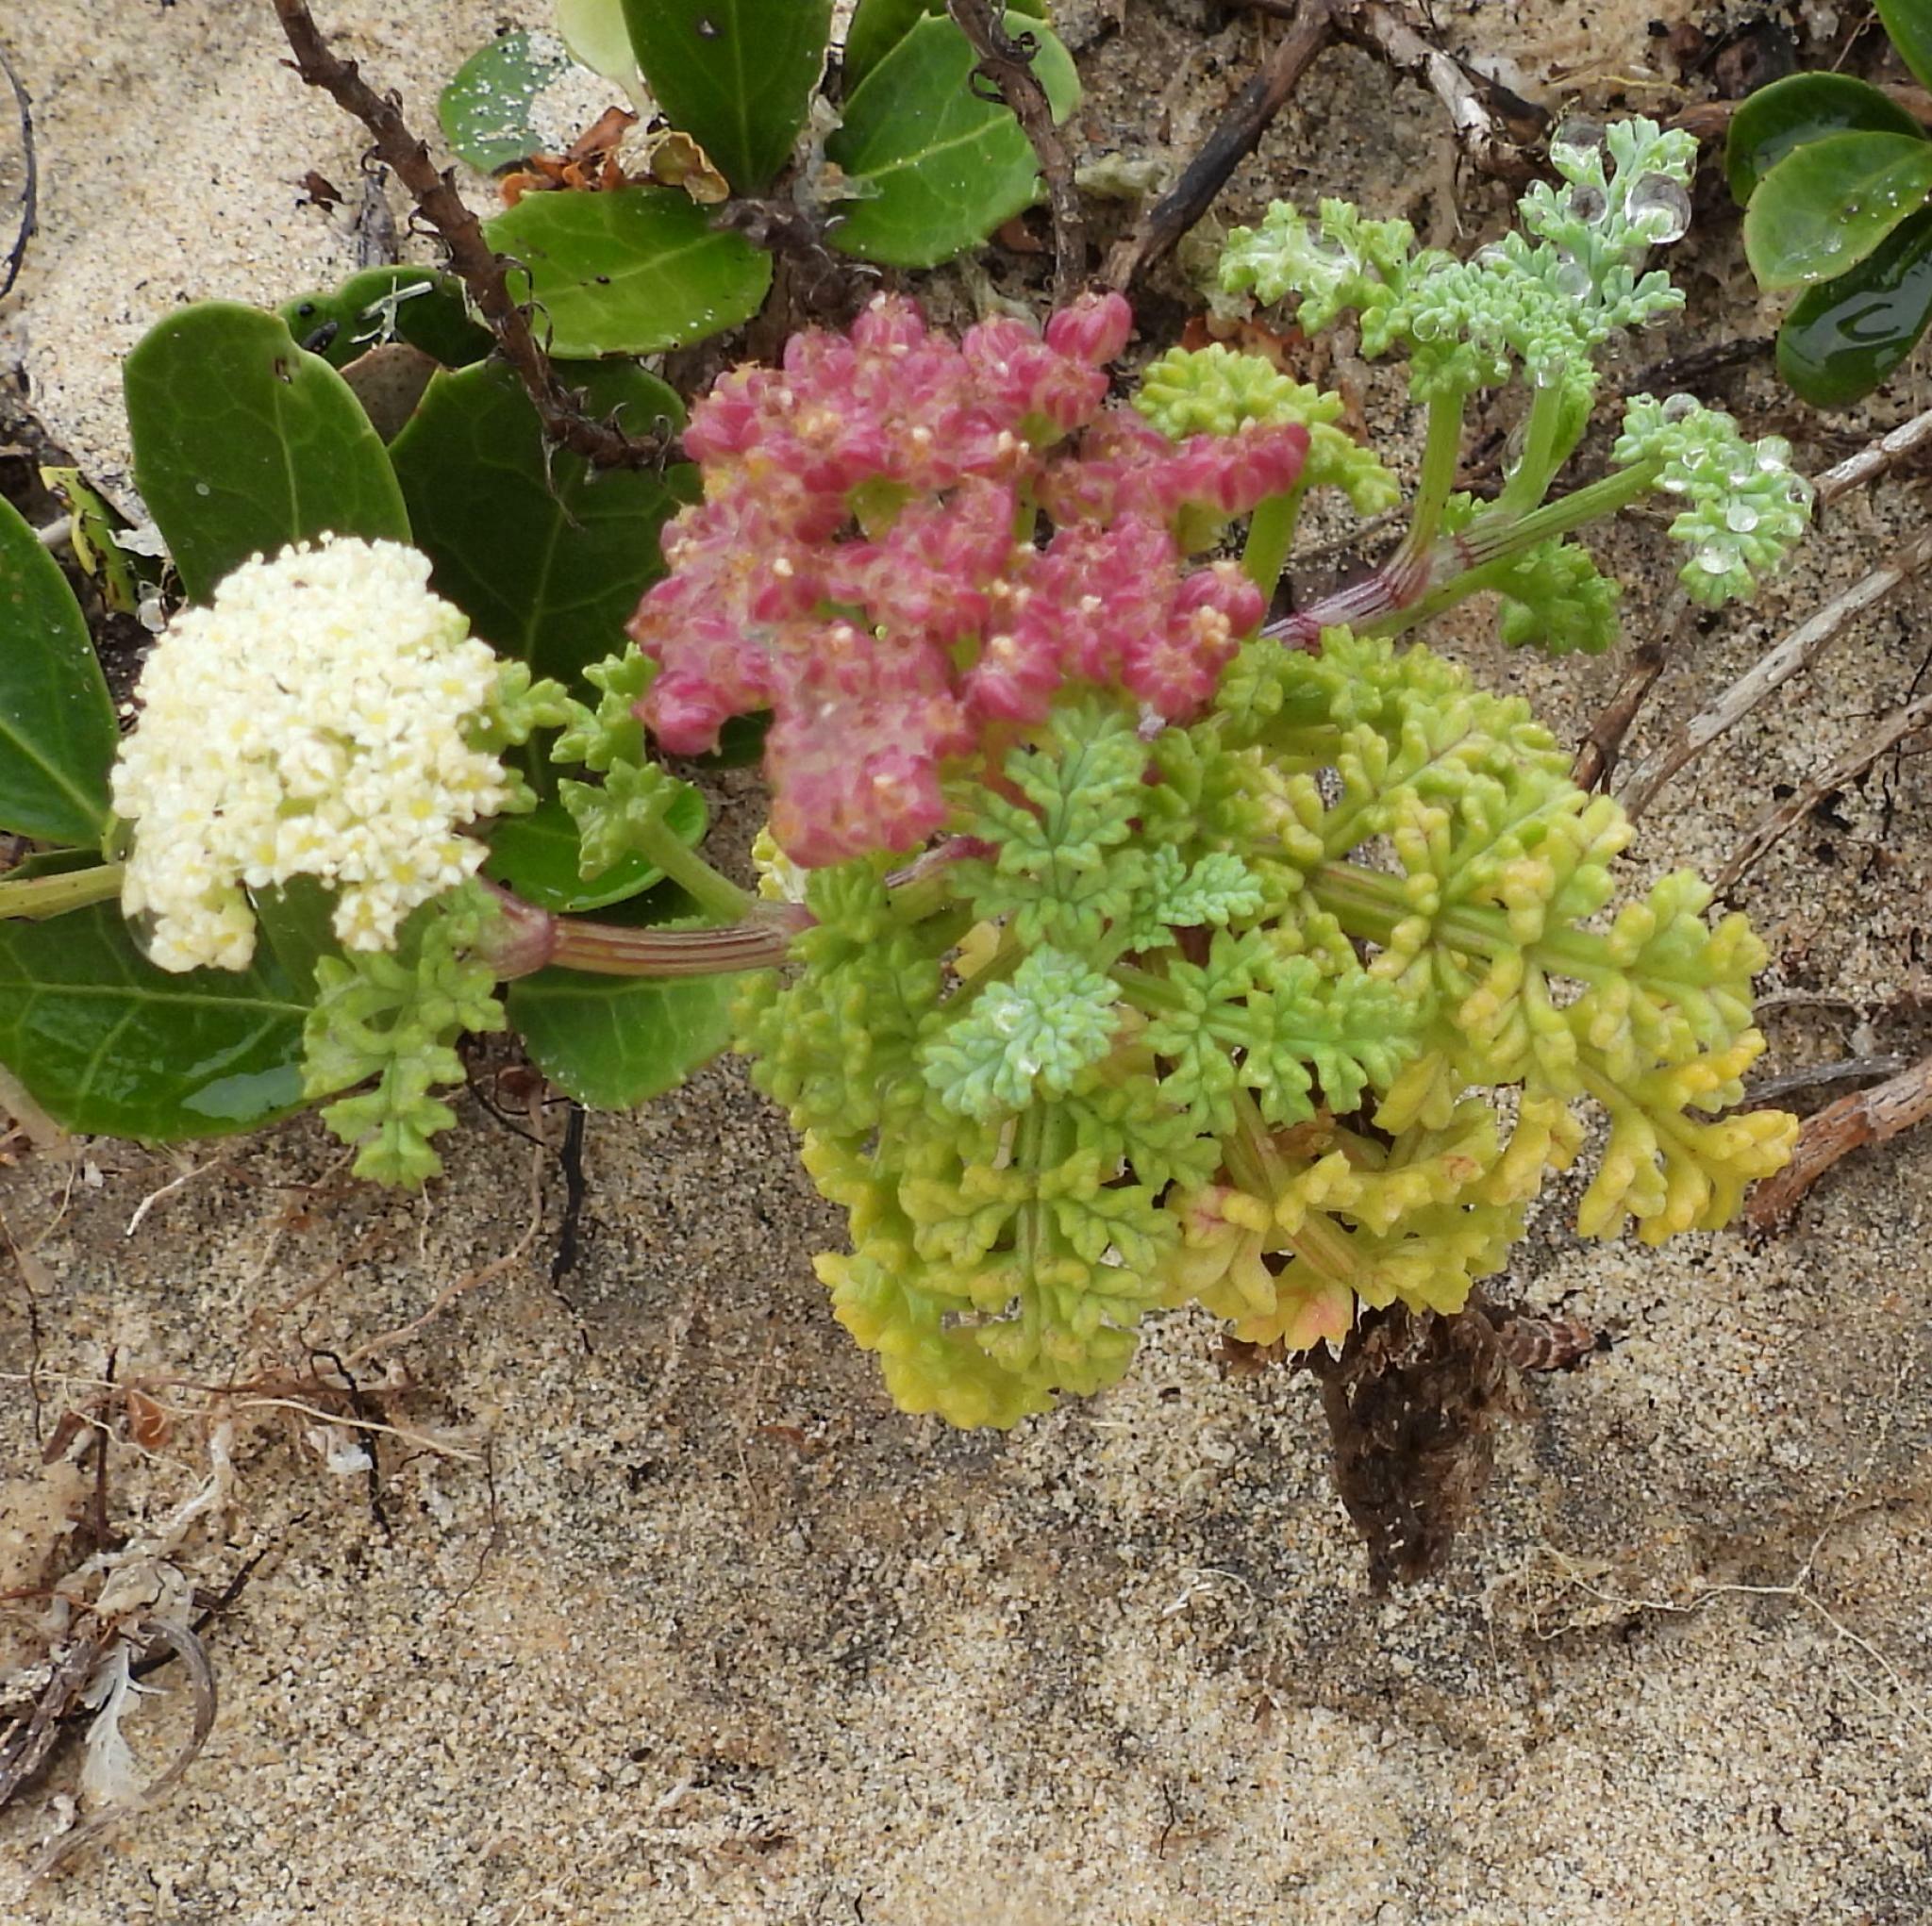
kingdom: Plantae
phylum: Tracheophyta
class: Magnoliopsida
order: Apiales
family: Apiaceae
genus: Dasispermum
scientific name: Dasispermum suffruticosum
